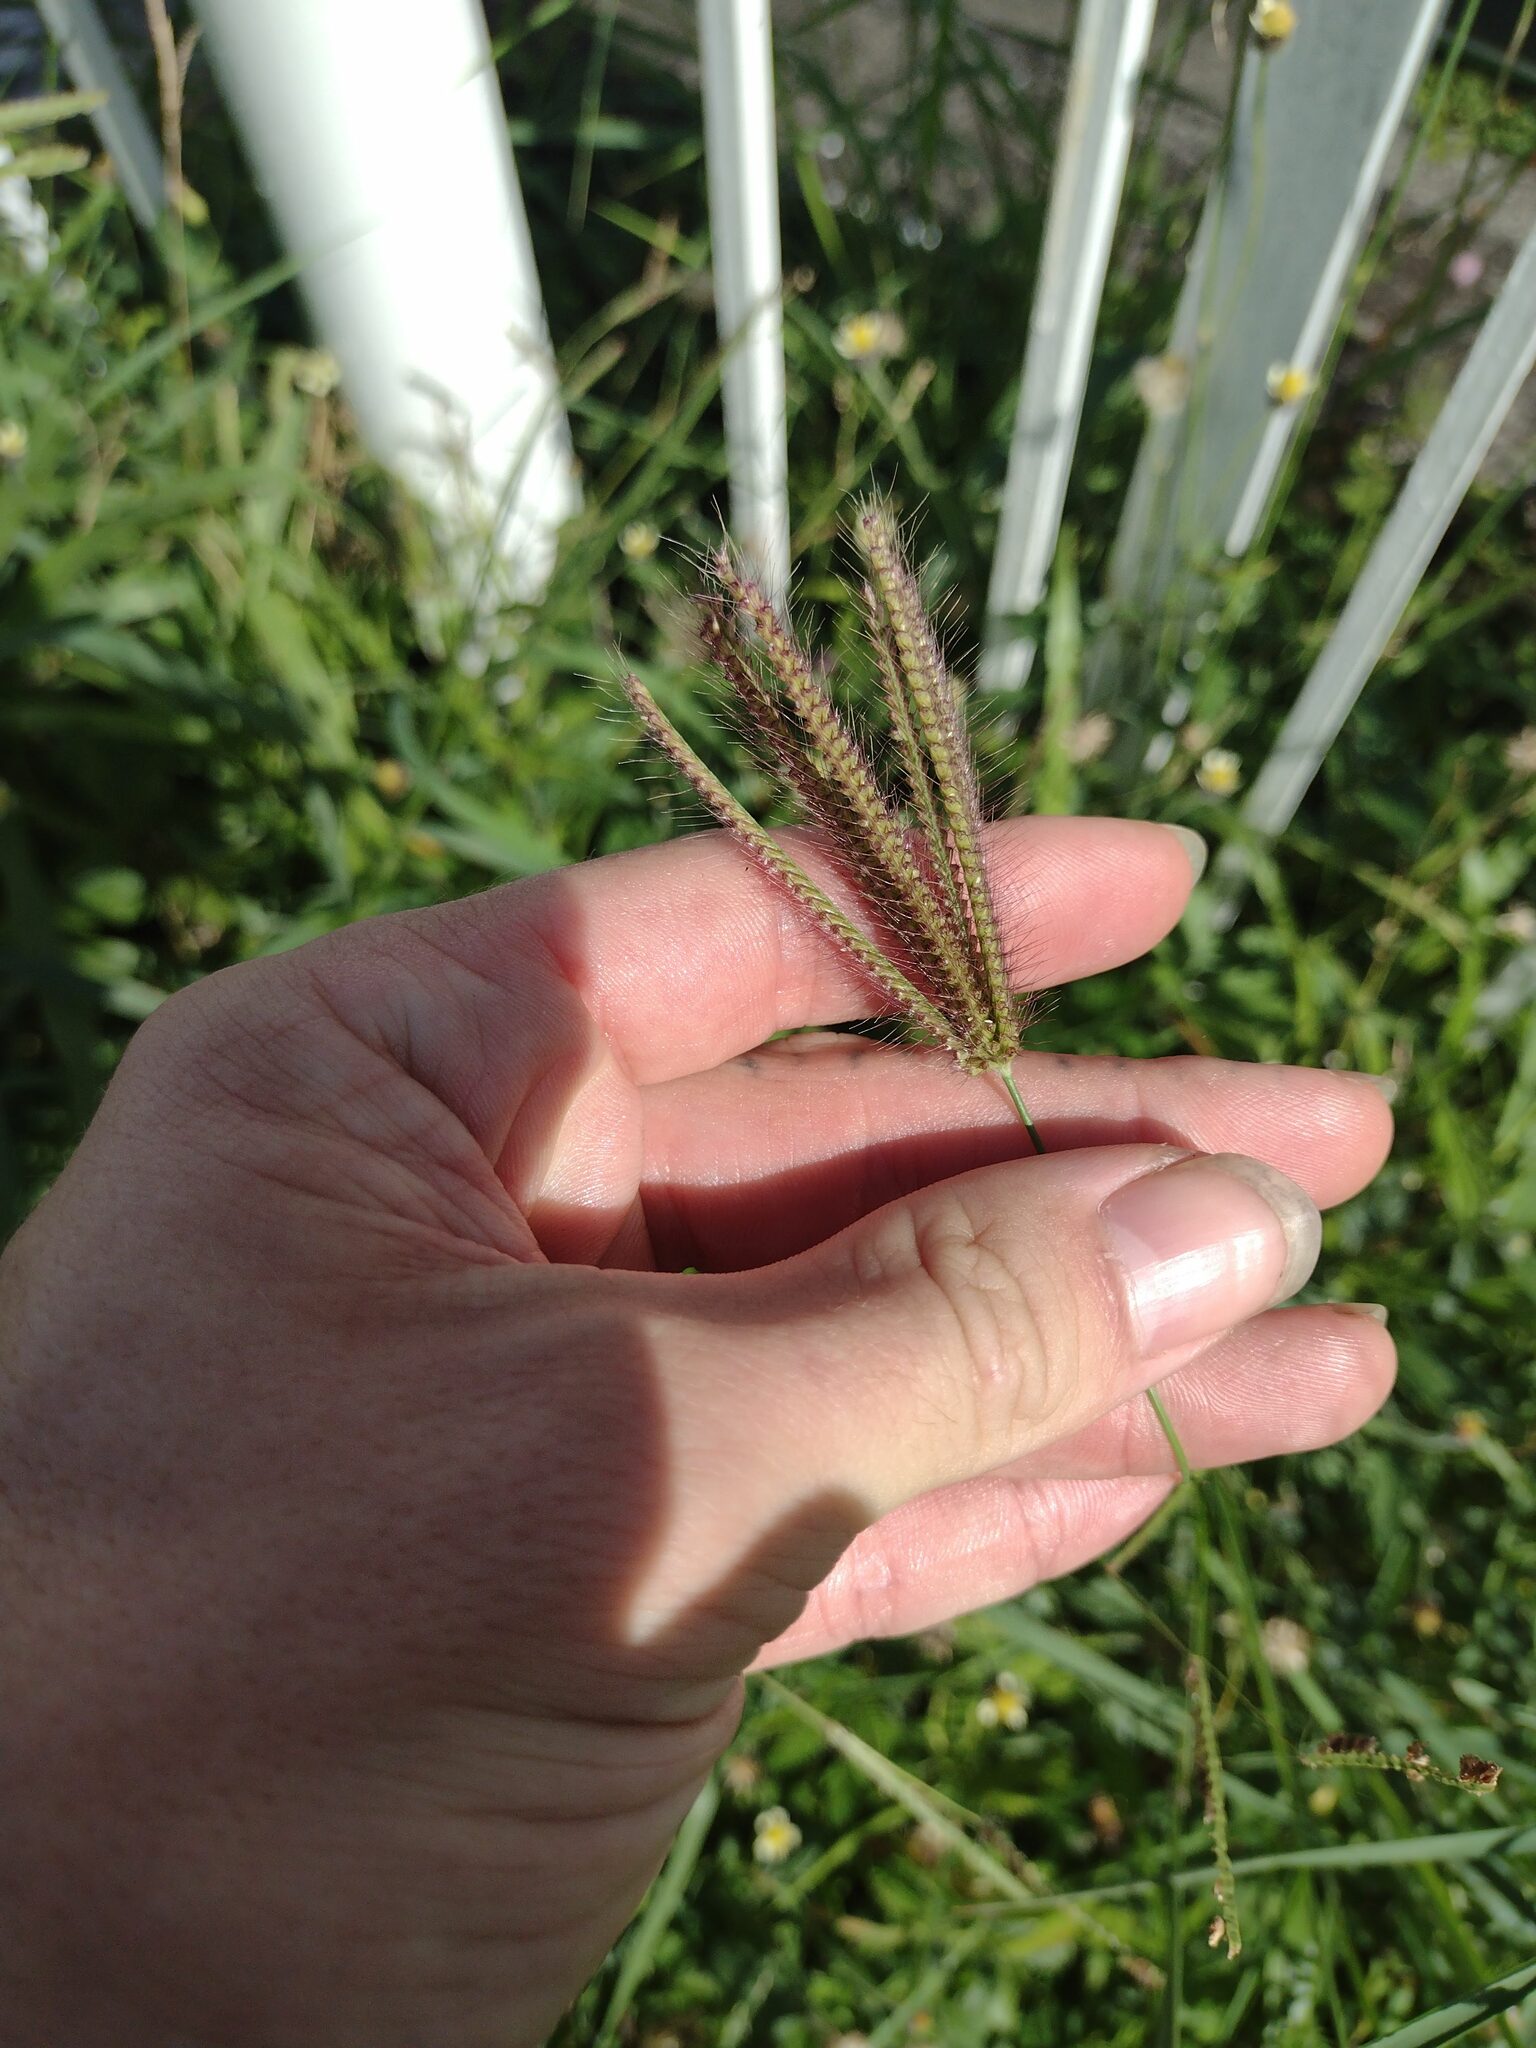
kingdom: Plantae
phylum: Tracheophyta
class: Liliopsida
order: Poales
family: Poaceae
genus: Chloris
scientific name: Chloris barbata
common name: Swollen fingergrass
